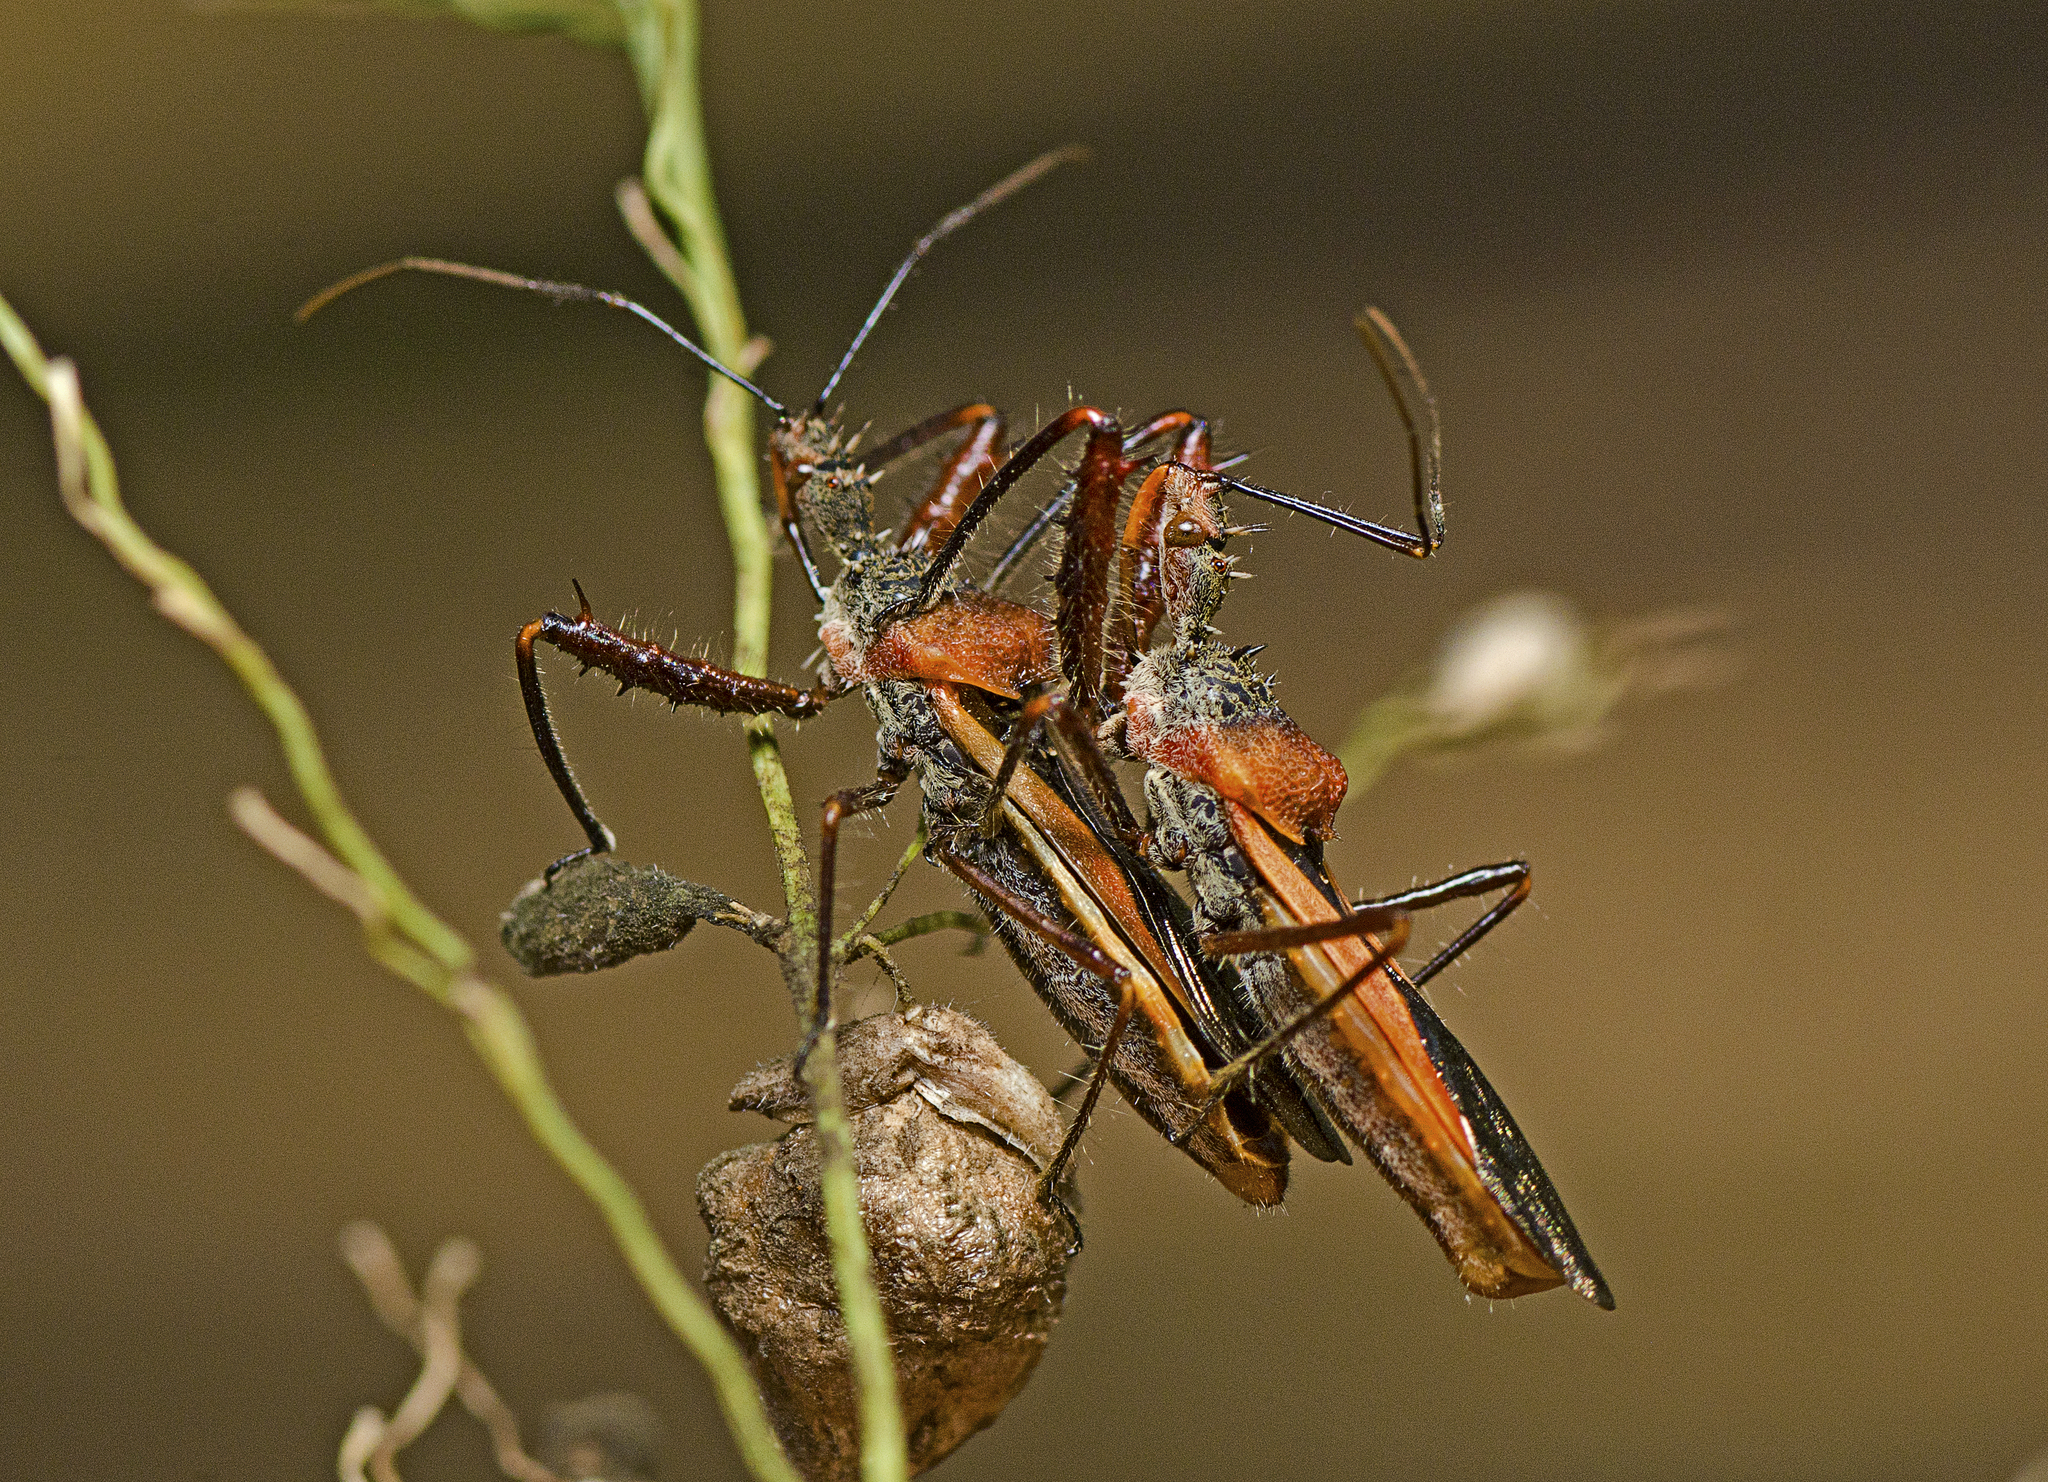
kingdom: Animalia
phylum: Arthropoda
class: Insecta
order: Hemiptera
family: Reduviidae
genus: Scipinia
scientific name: Scipinia arenacea
